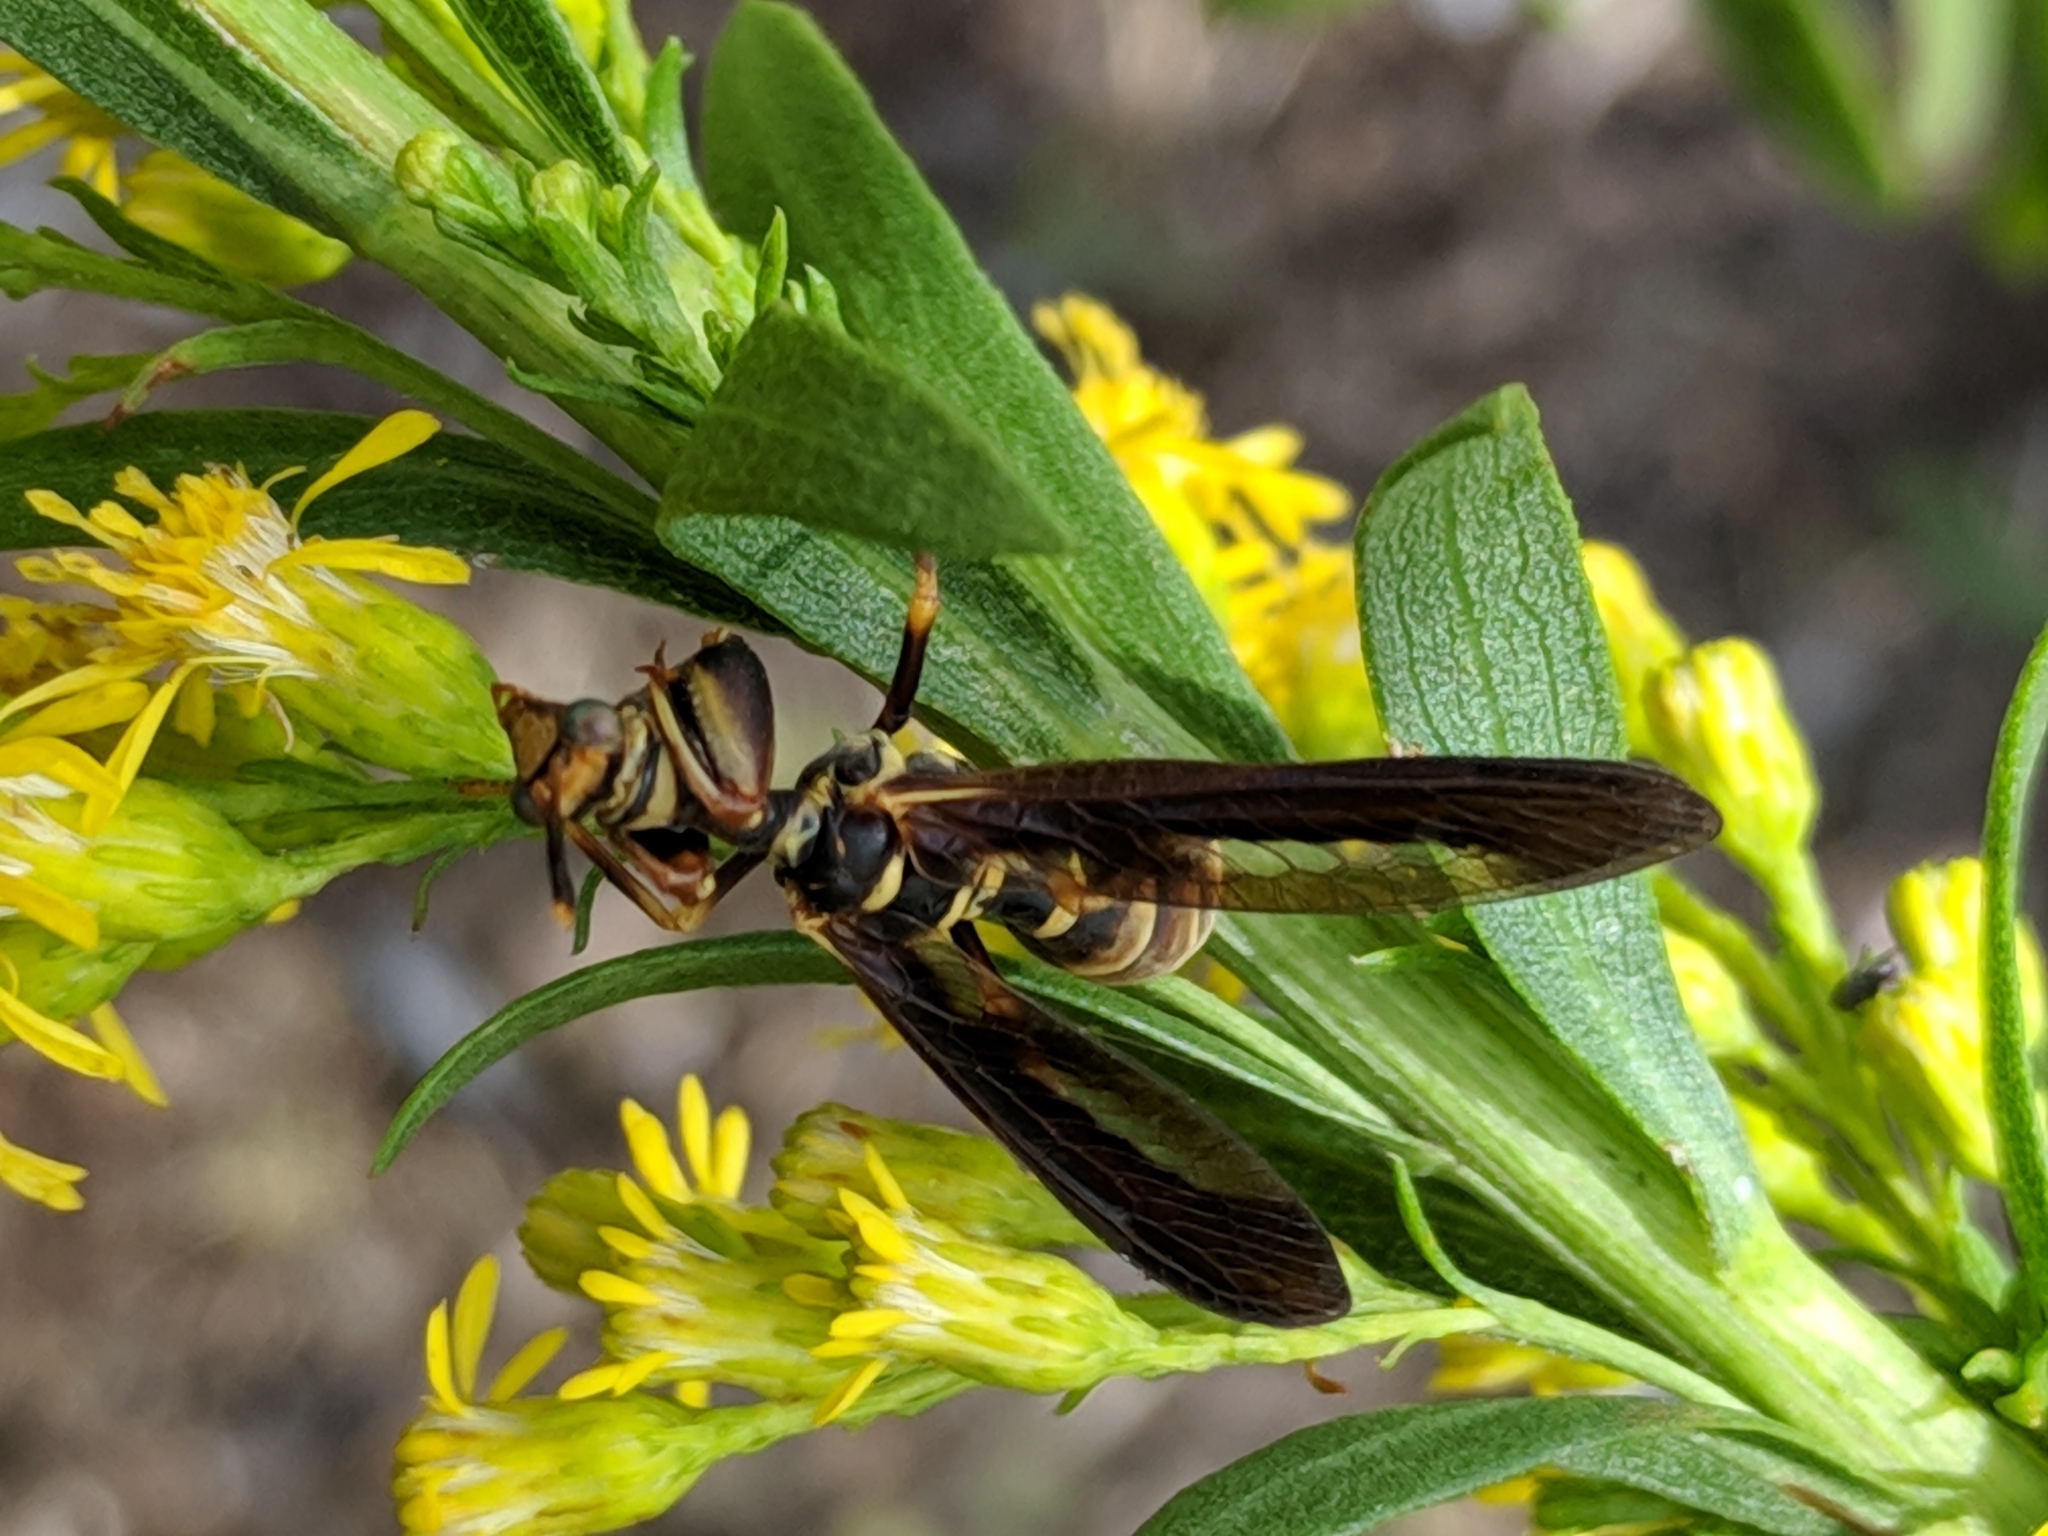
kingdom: Animalia
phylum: Arthropoda
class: Insecta
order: Neuroptera
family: Mantispidae
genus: Climaciella
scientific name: Climaciella brunnea
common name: Brown wasp mantidfly
